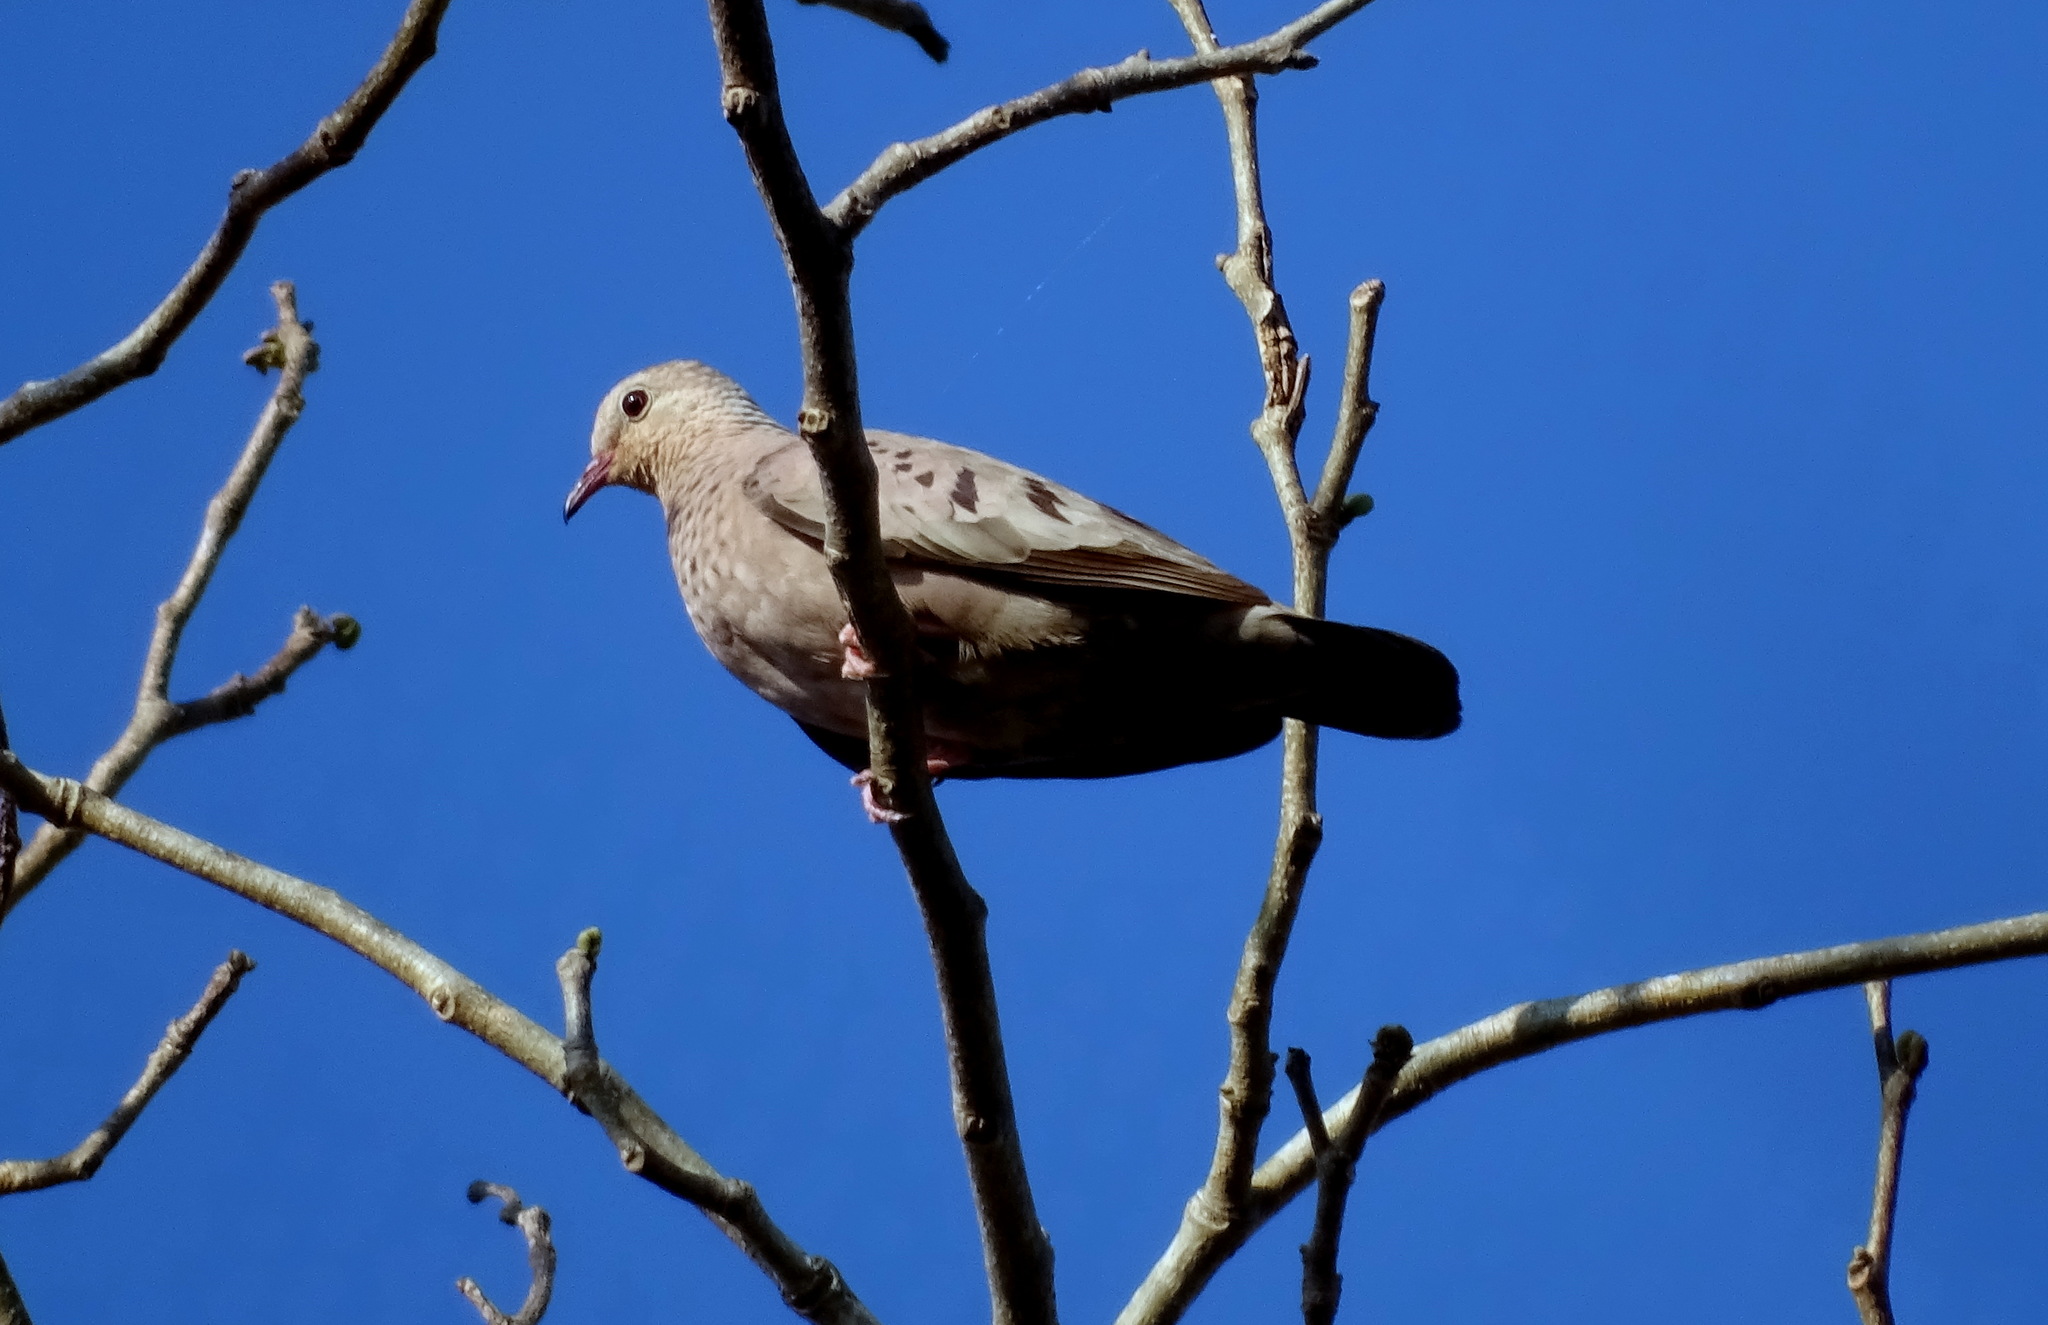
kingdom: Animalia
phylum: Chordata
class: Aves
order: Columbiformes
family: Columbidae
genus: Columbina
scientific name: Columbina passerina
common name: Common ground-dove
